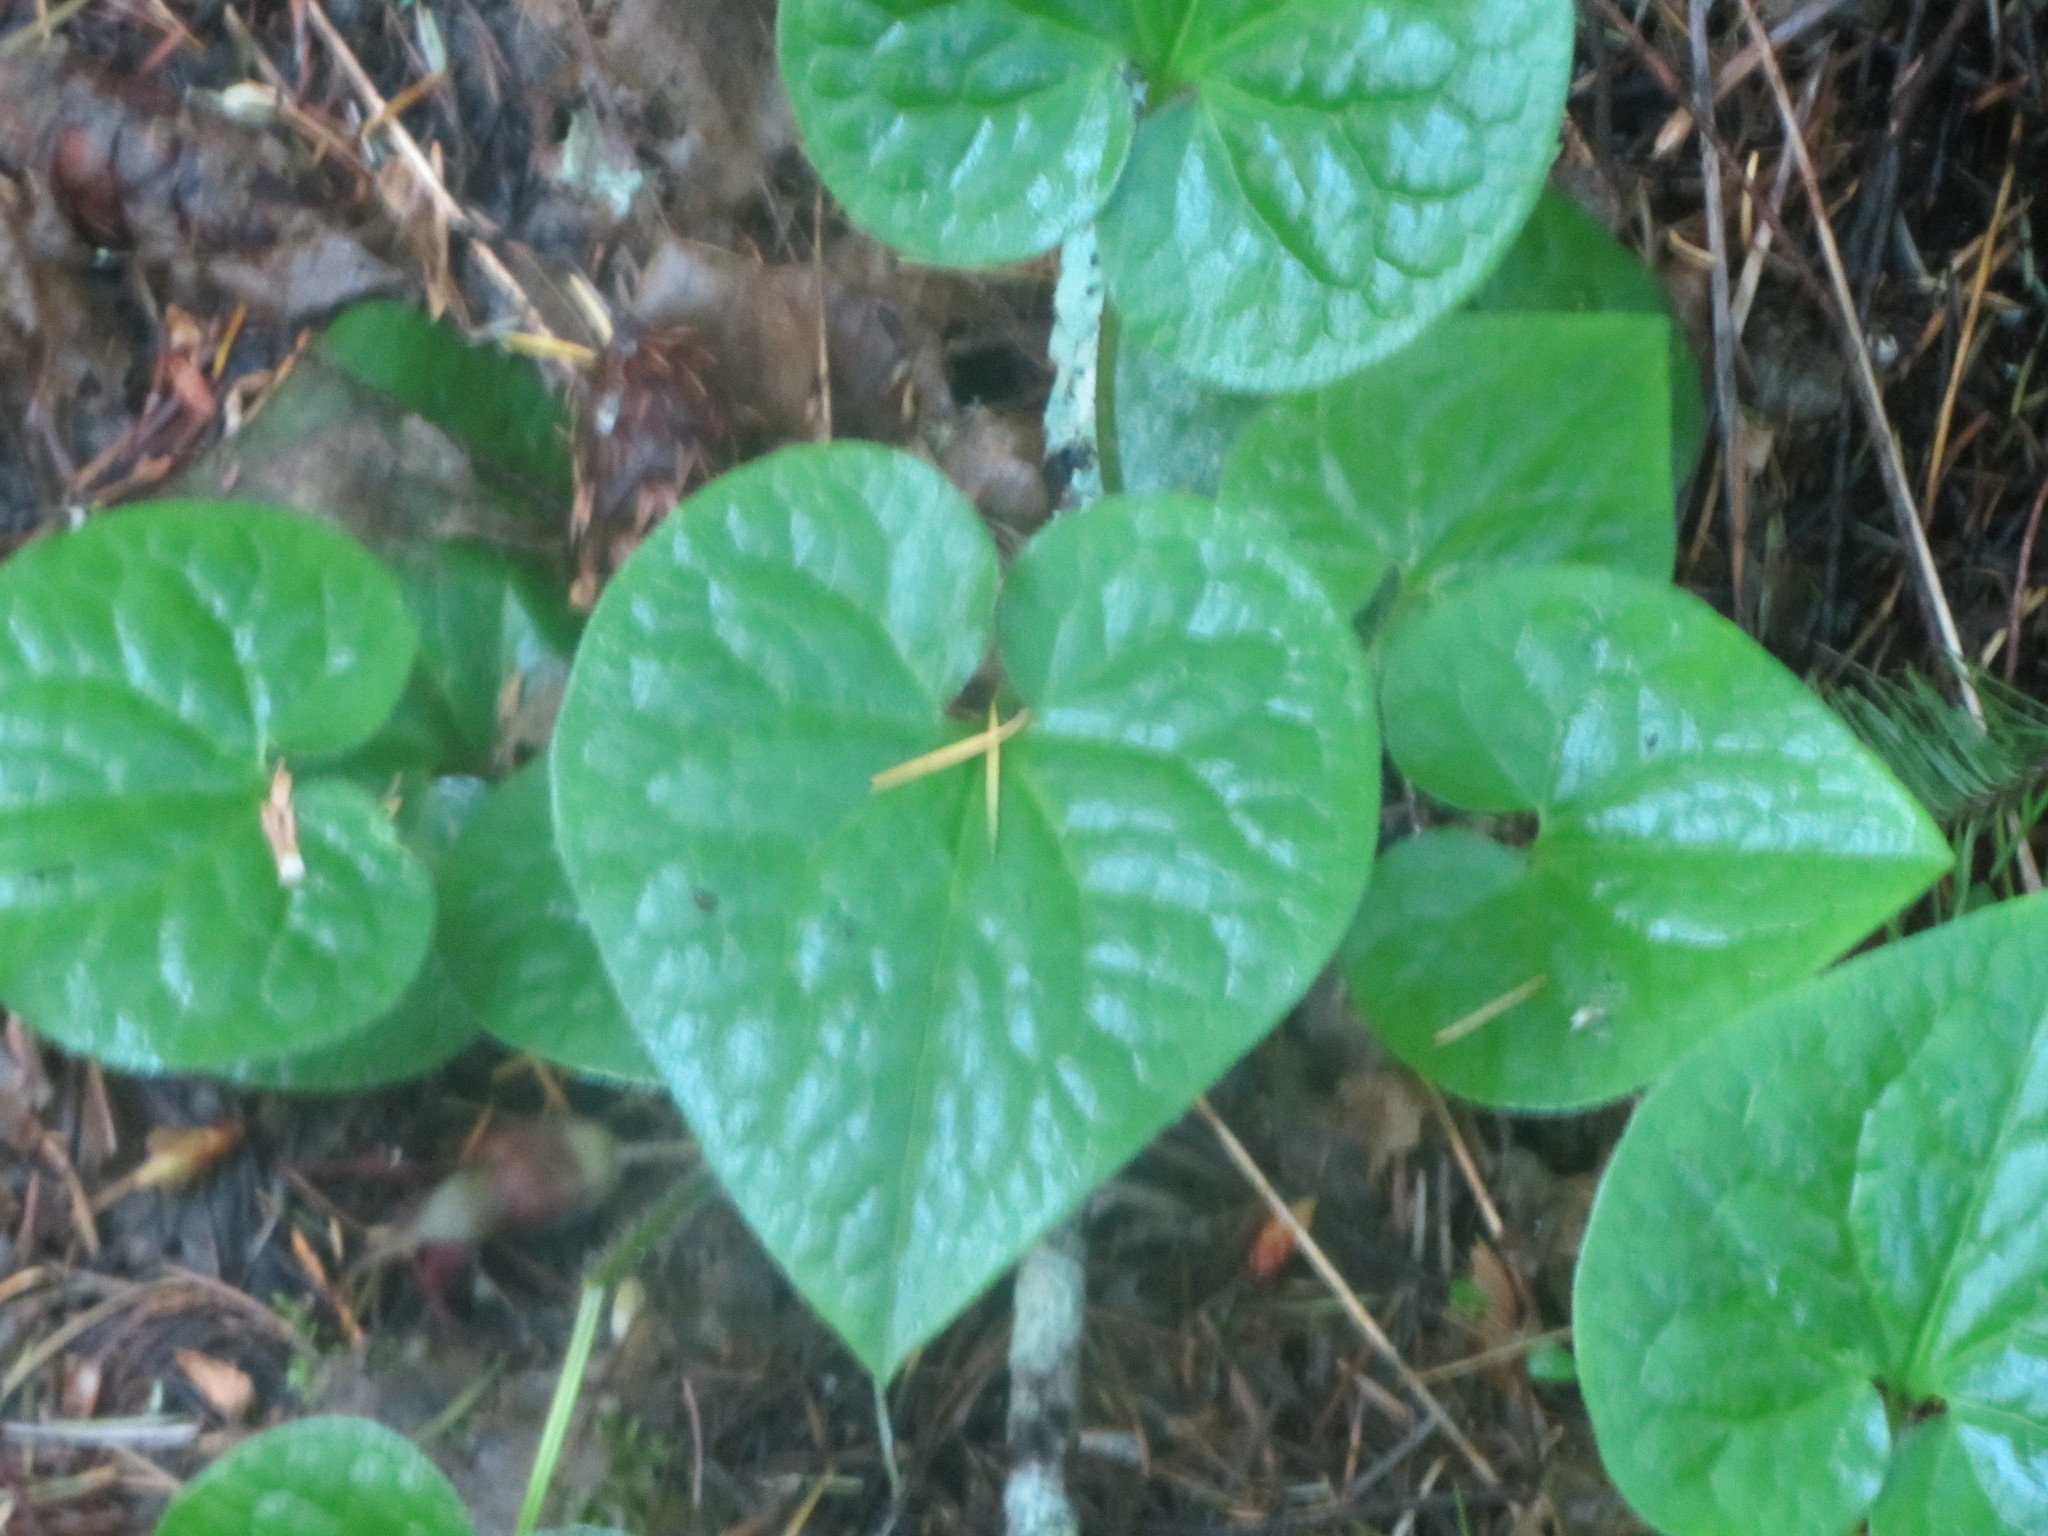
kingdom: Plantae
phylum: Tracheophyta
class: Magnoliopsida
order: Piperales
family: Aristolochiaceae
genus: Asarum
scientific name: Asarum caudatum
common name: Wild ginger
